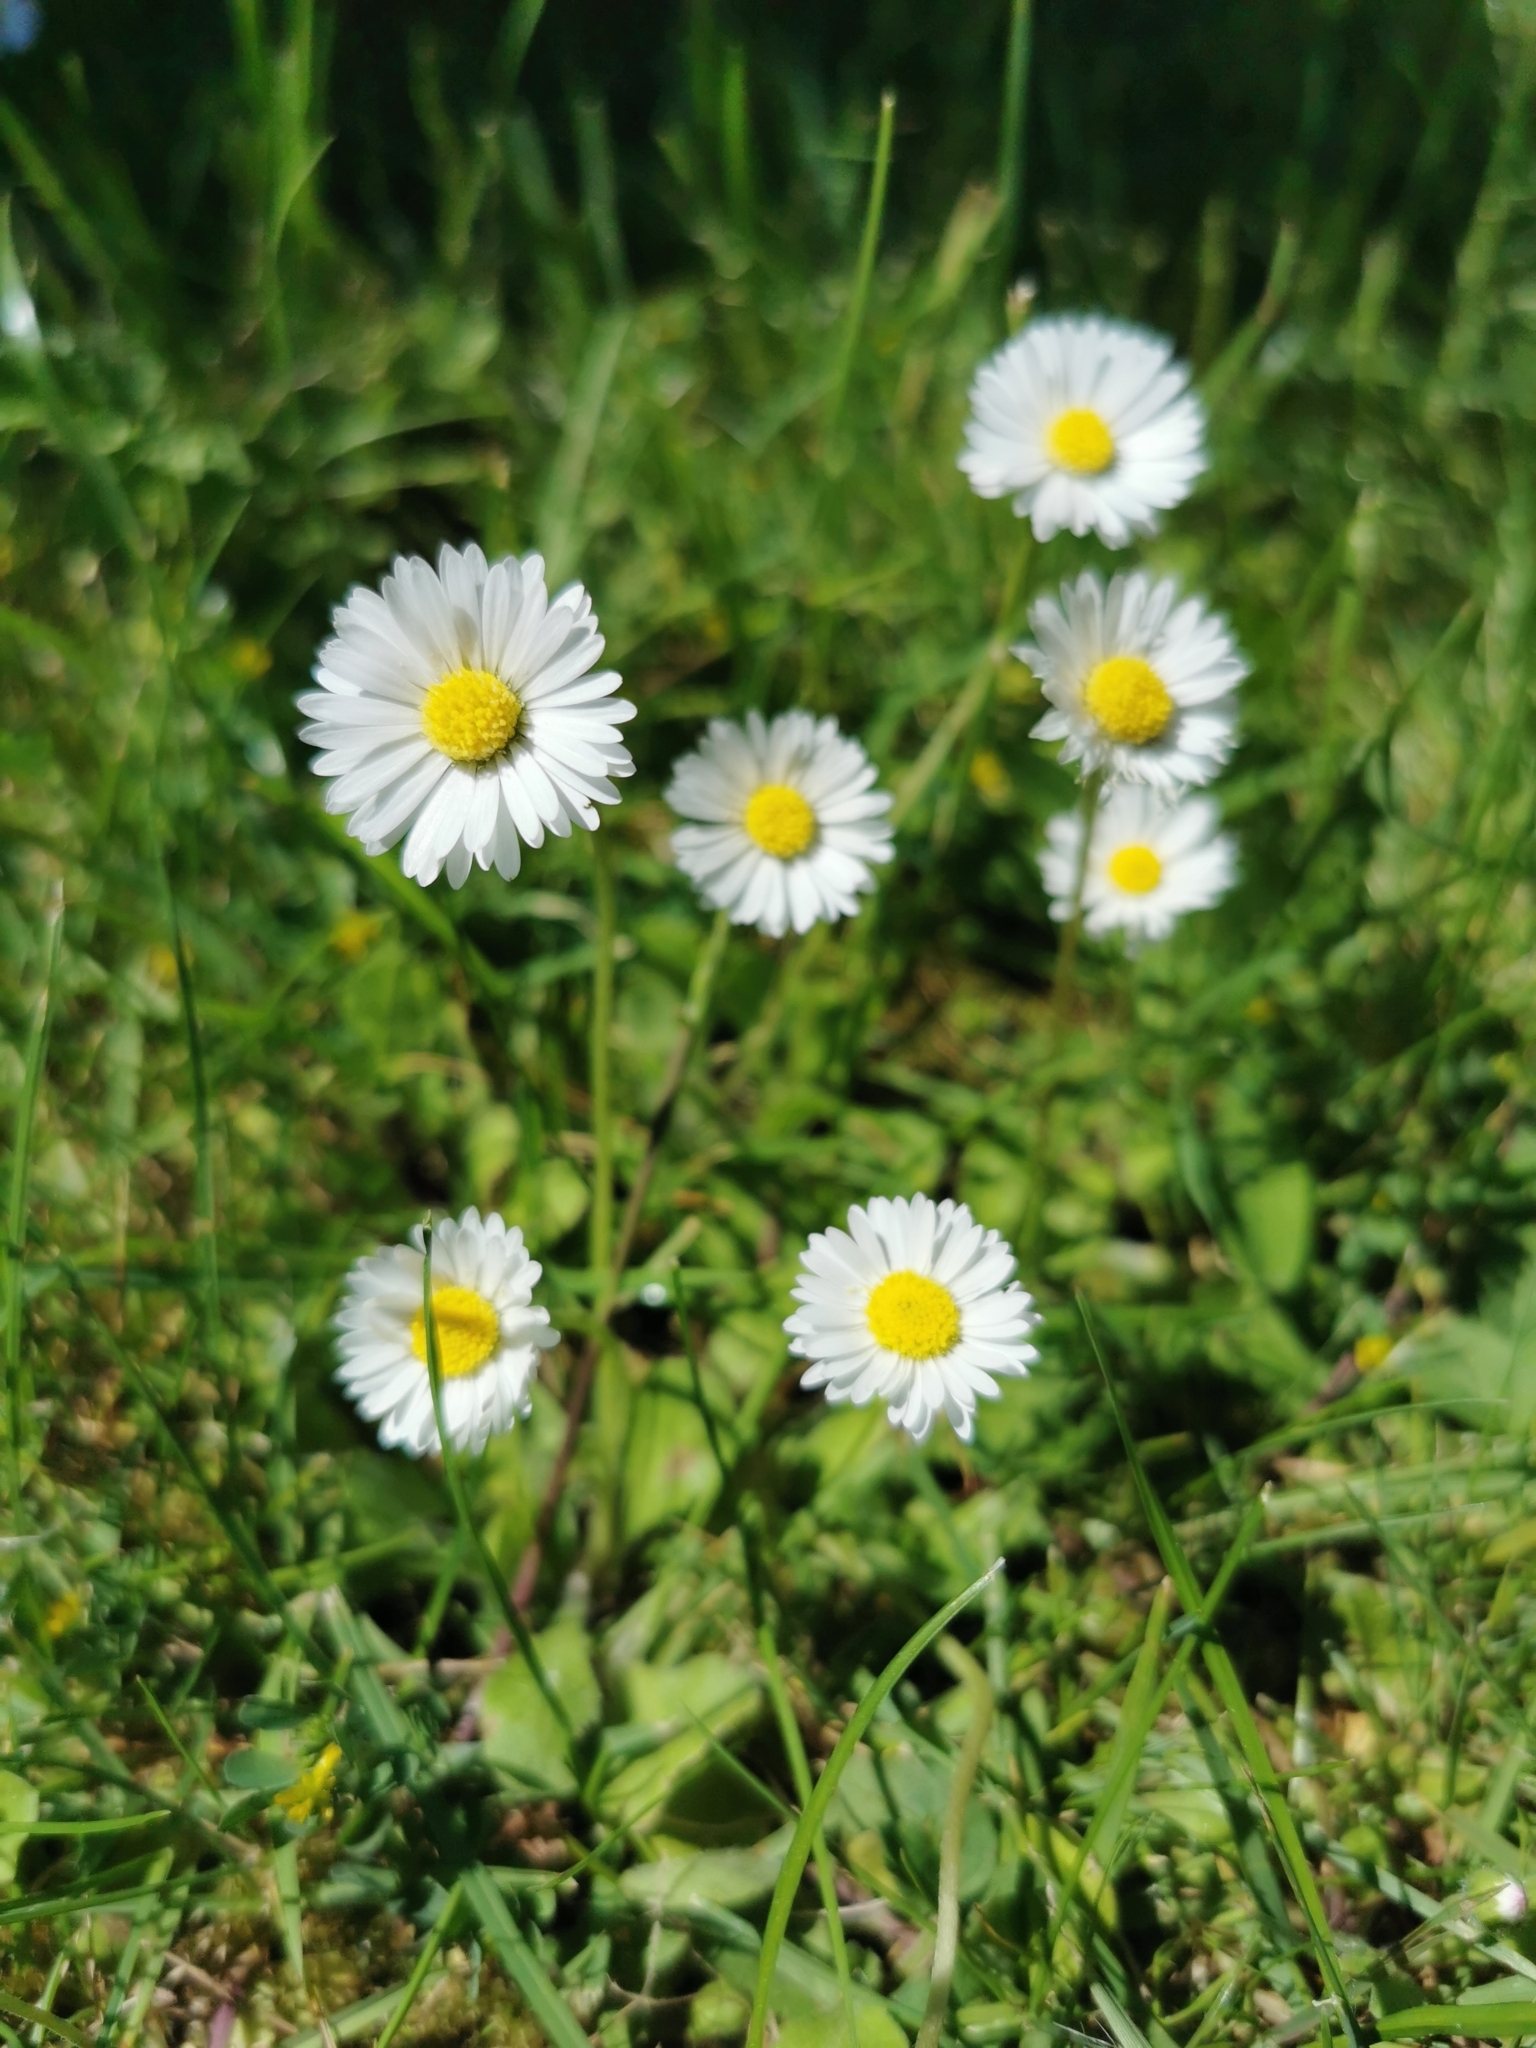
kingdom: Plantae
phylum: Tracheophyta
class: Magnoliopsida
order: Asterales
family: Asteraceae
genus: Bellis
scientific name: Bellis perennis
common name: Lawndaisy
